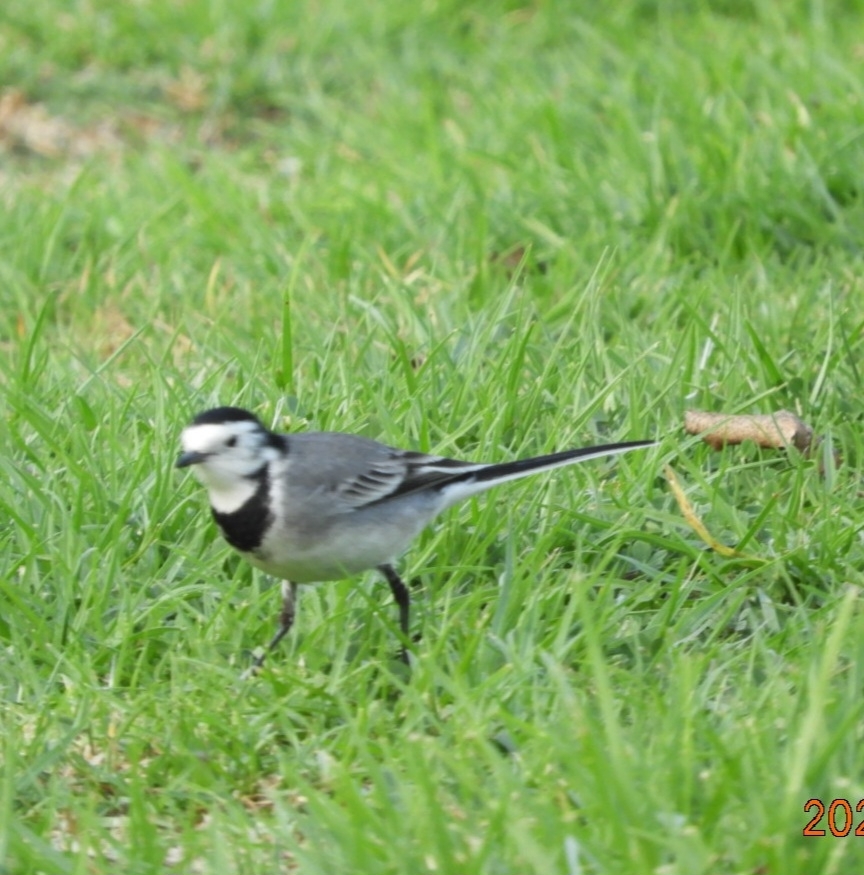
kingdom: Animalia
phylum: Chordata
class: Aves
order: Passeriformes
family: Motacillidae
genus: Motacilla
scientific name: Motacilla alba
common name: White wagtail
